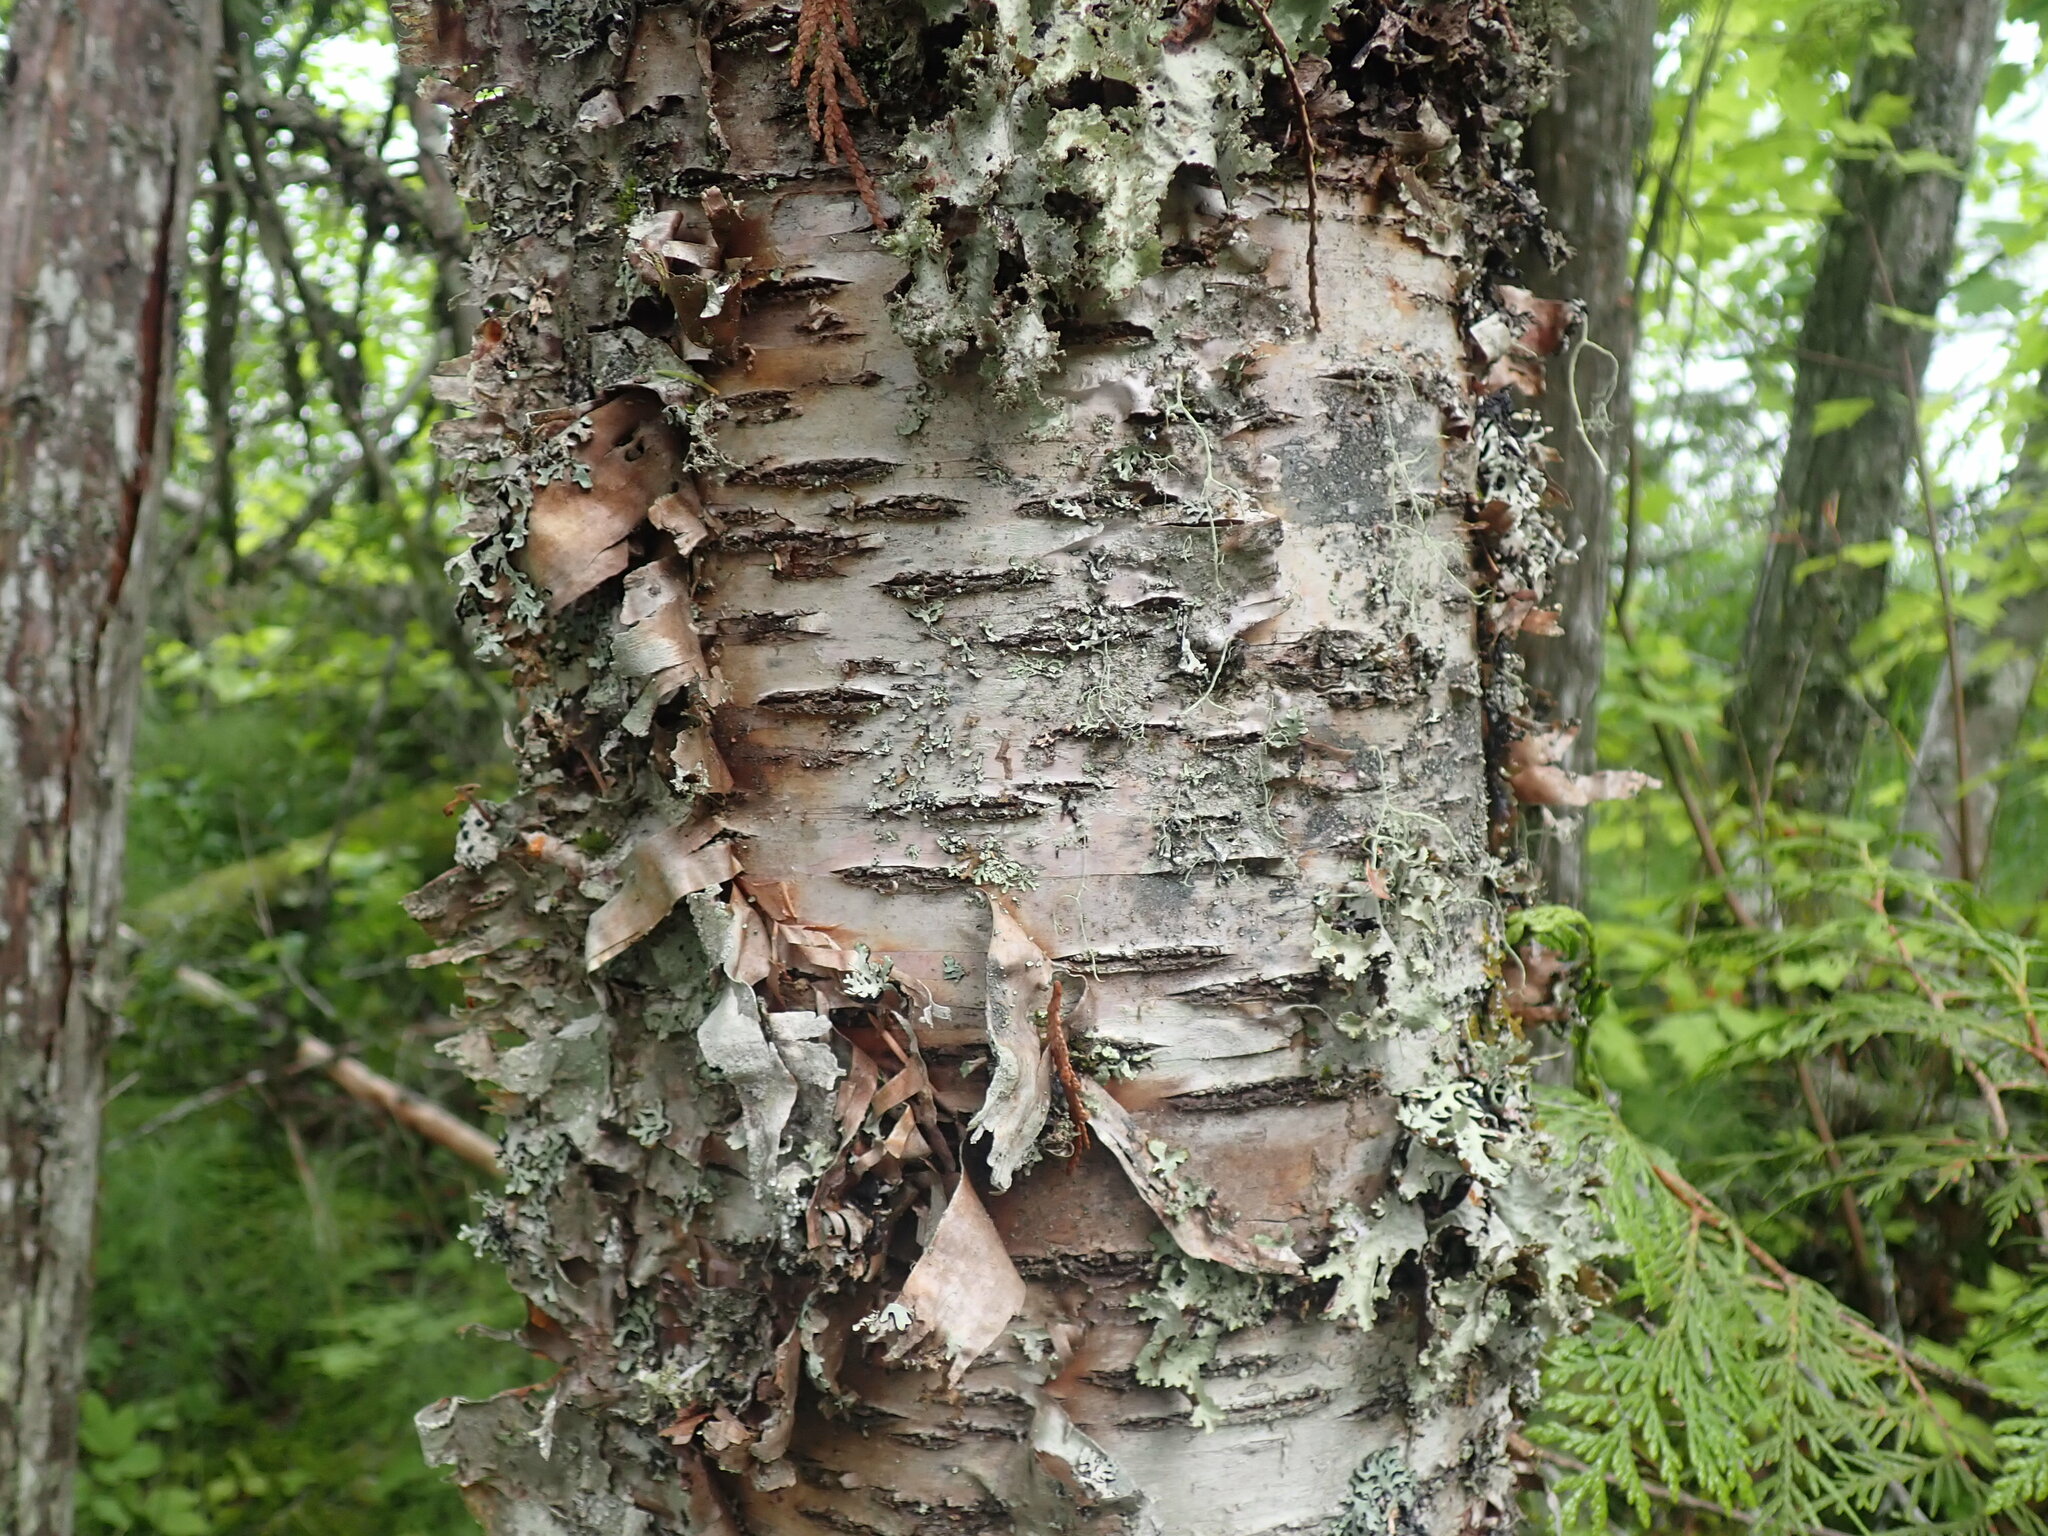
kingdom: Plantae
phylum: Tracheophyta
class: Magnoliopsida
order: Fagales
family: Betulaceae
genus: Betula
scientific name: Betula papyrifera
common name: Paper birch
